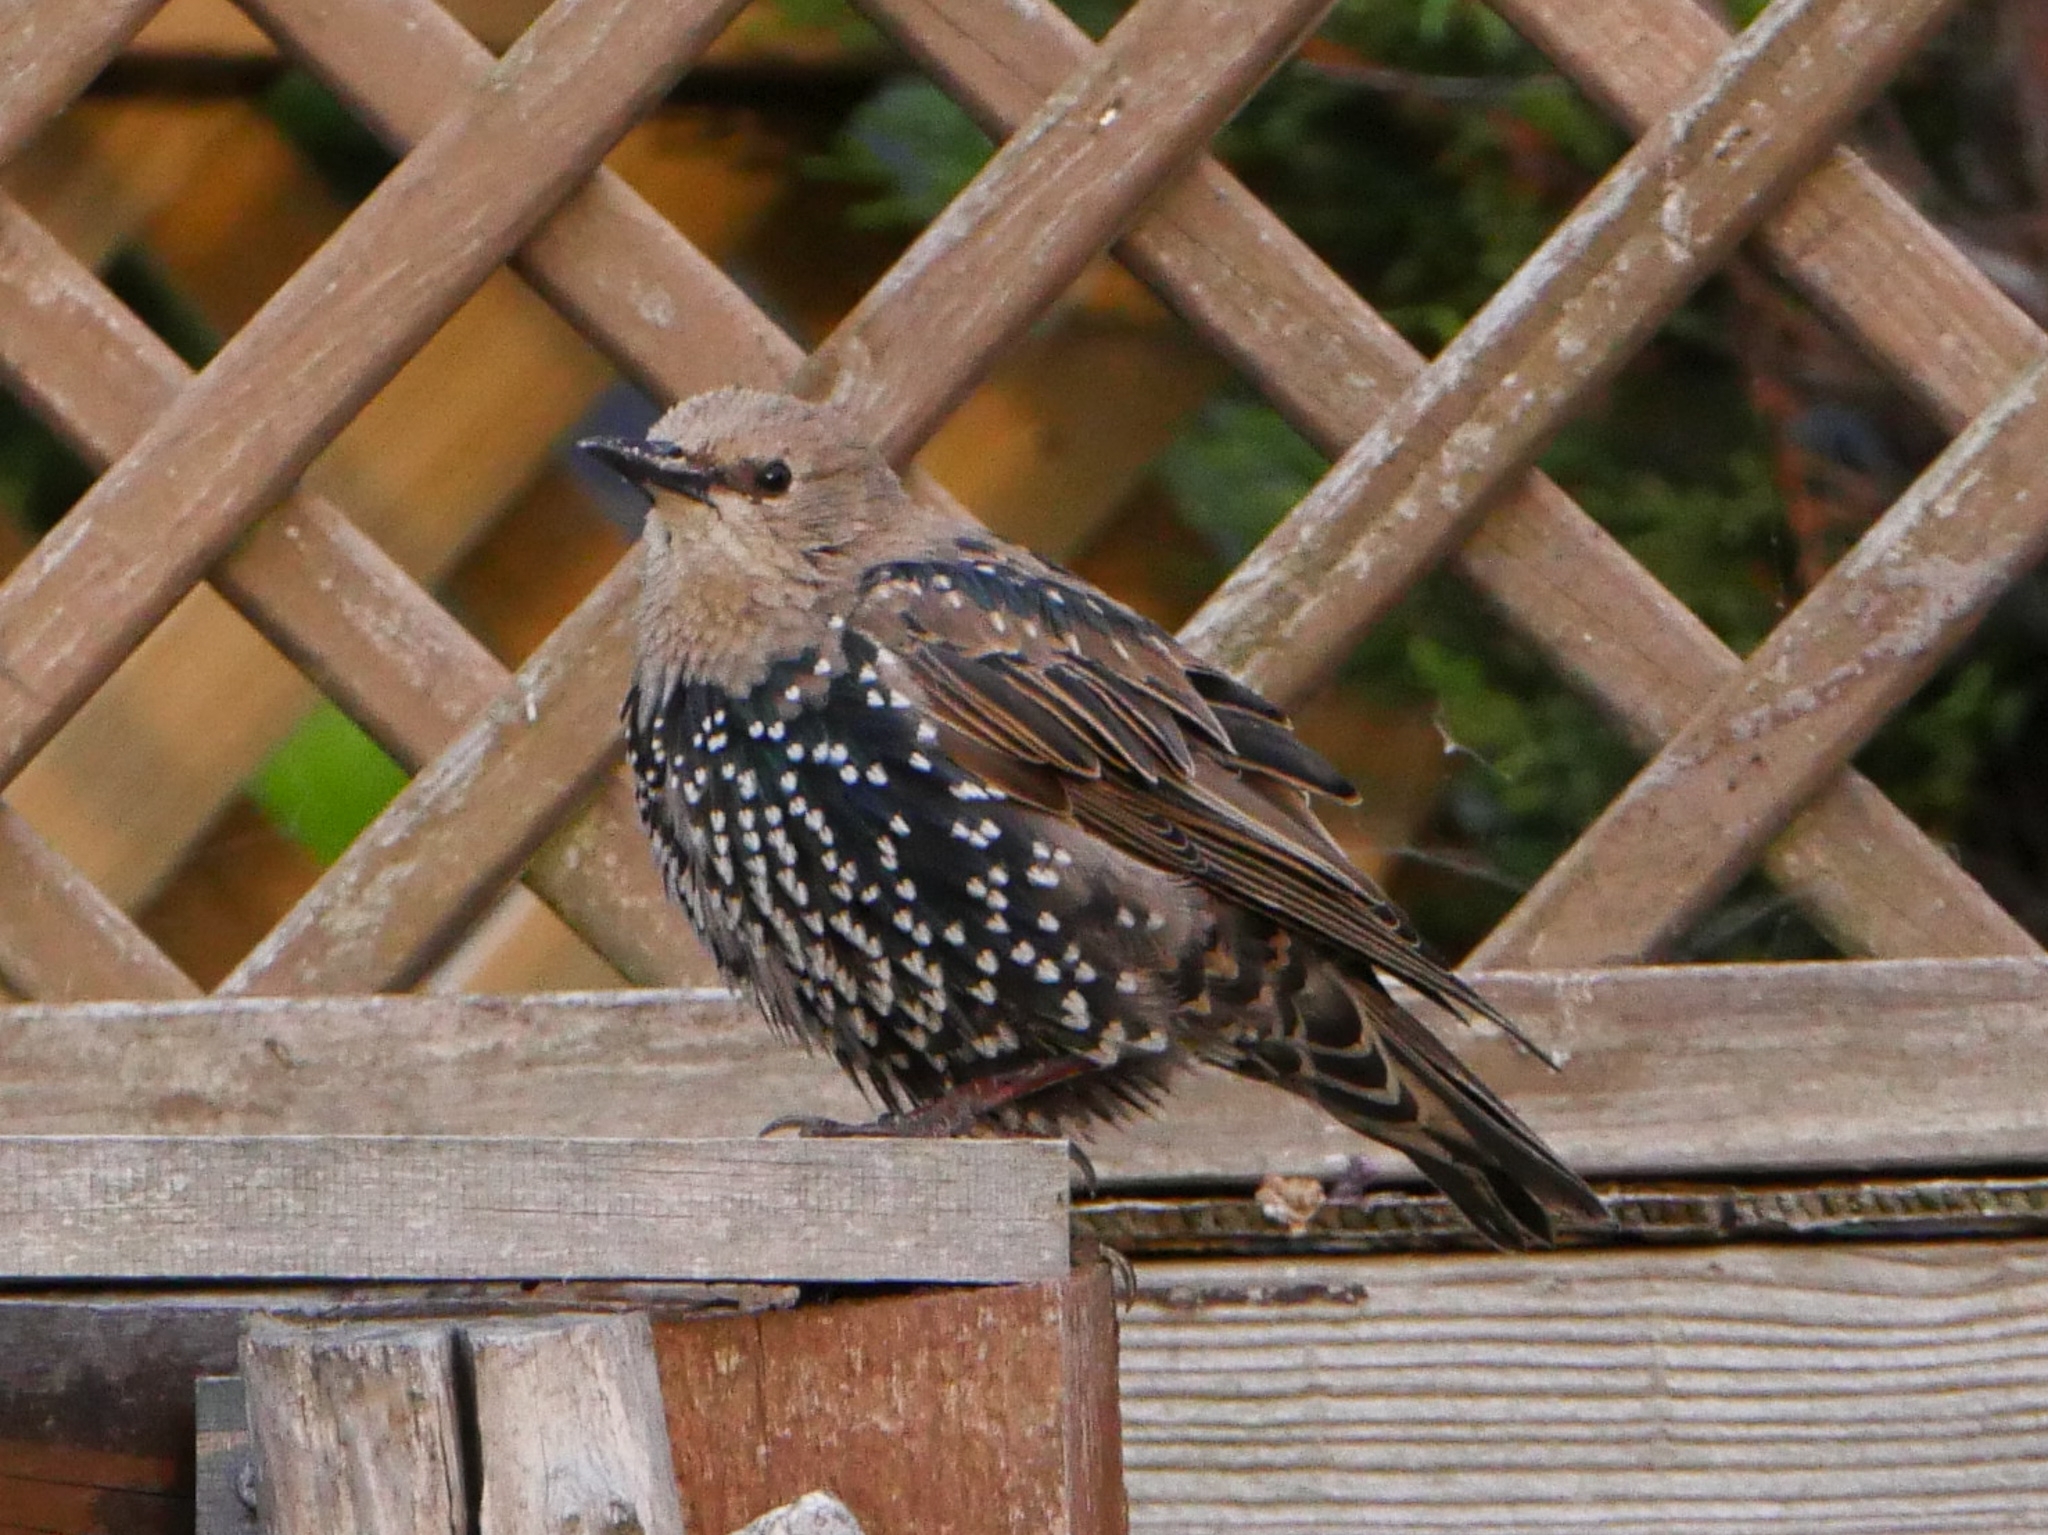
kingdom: Animalia
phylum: Chordata
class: Aves
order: Passeriformes
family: Sturnidae
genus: Sturnus
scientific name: Sturnus vulgaris
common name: Common starling
